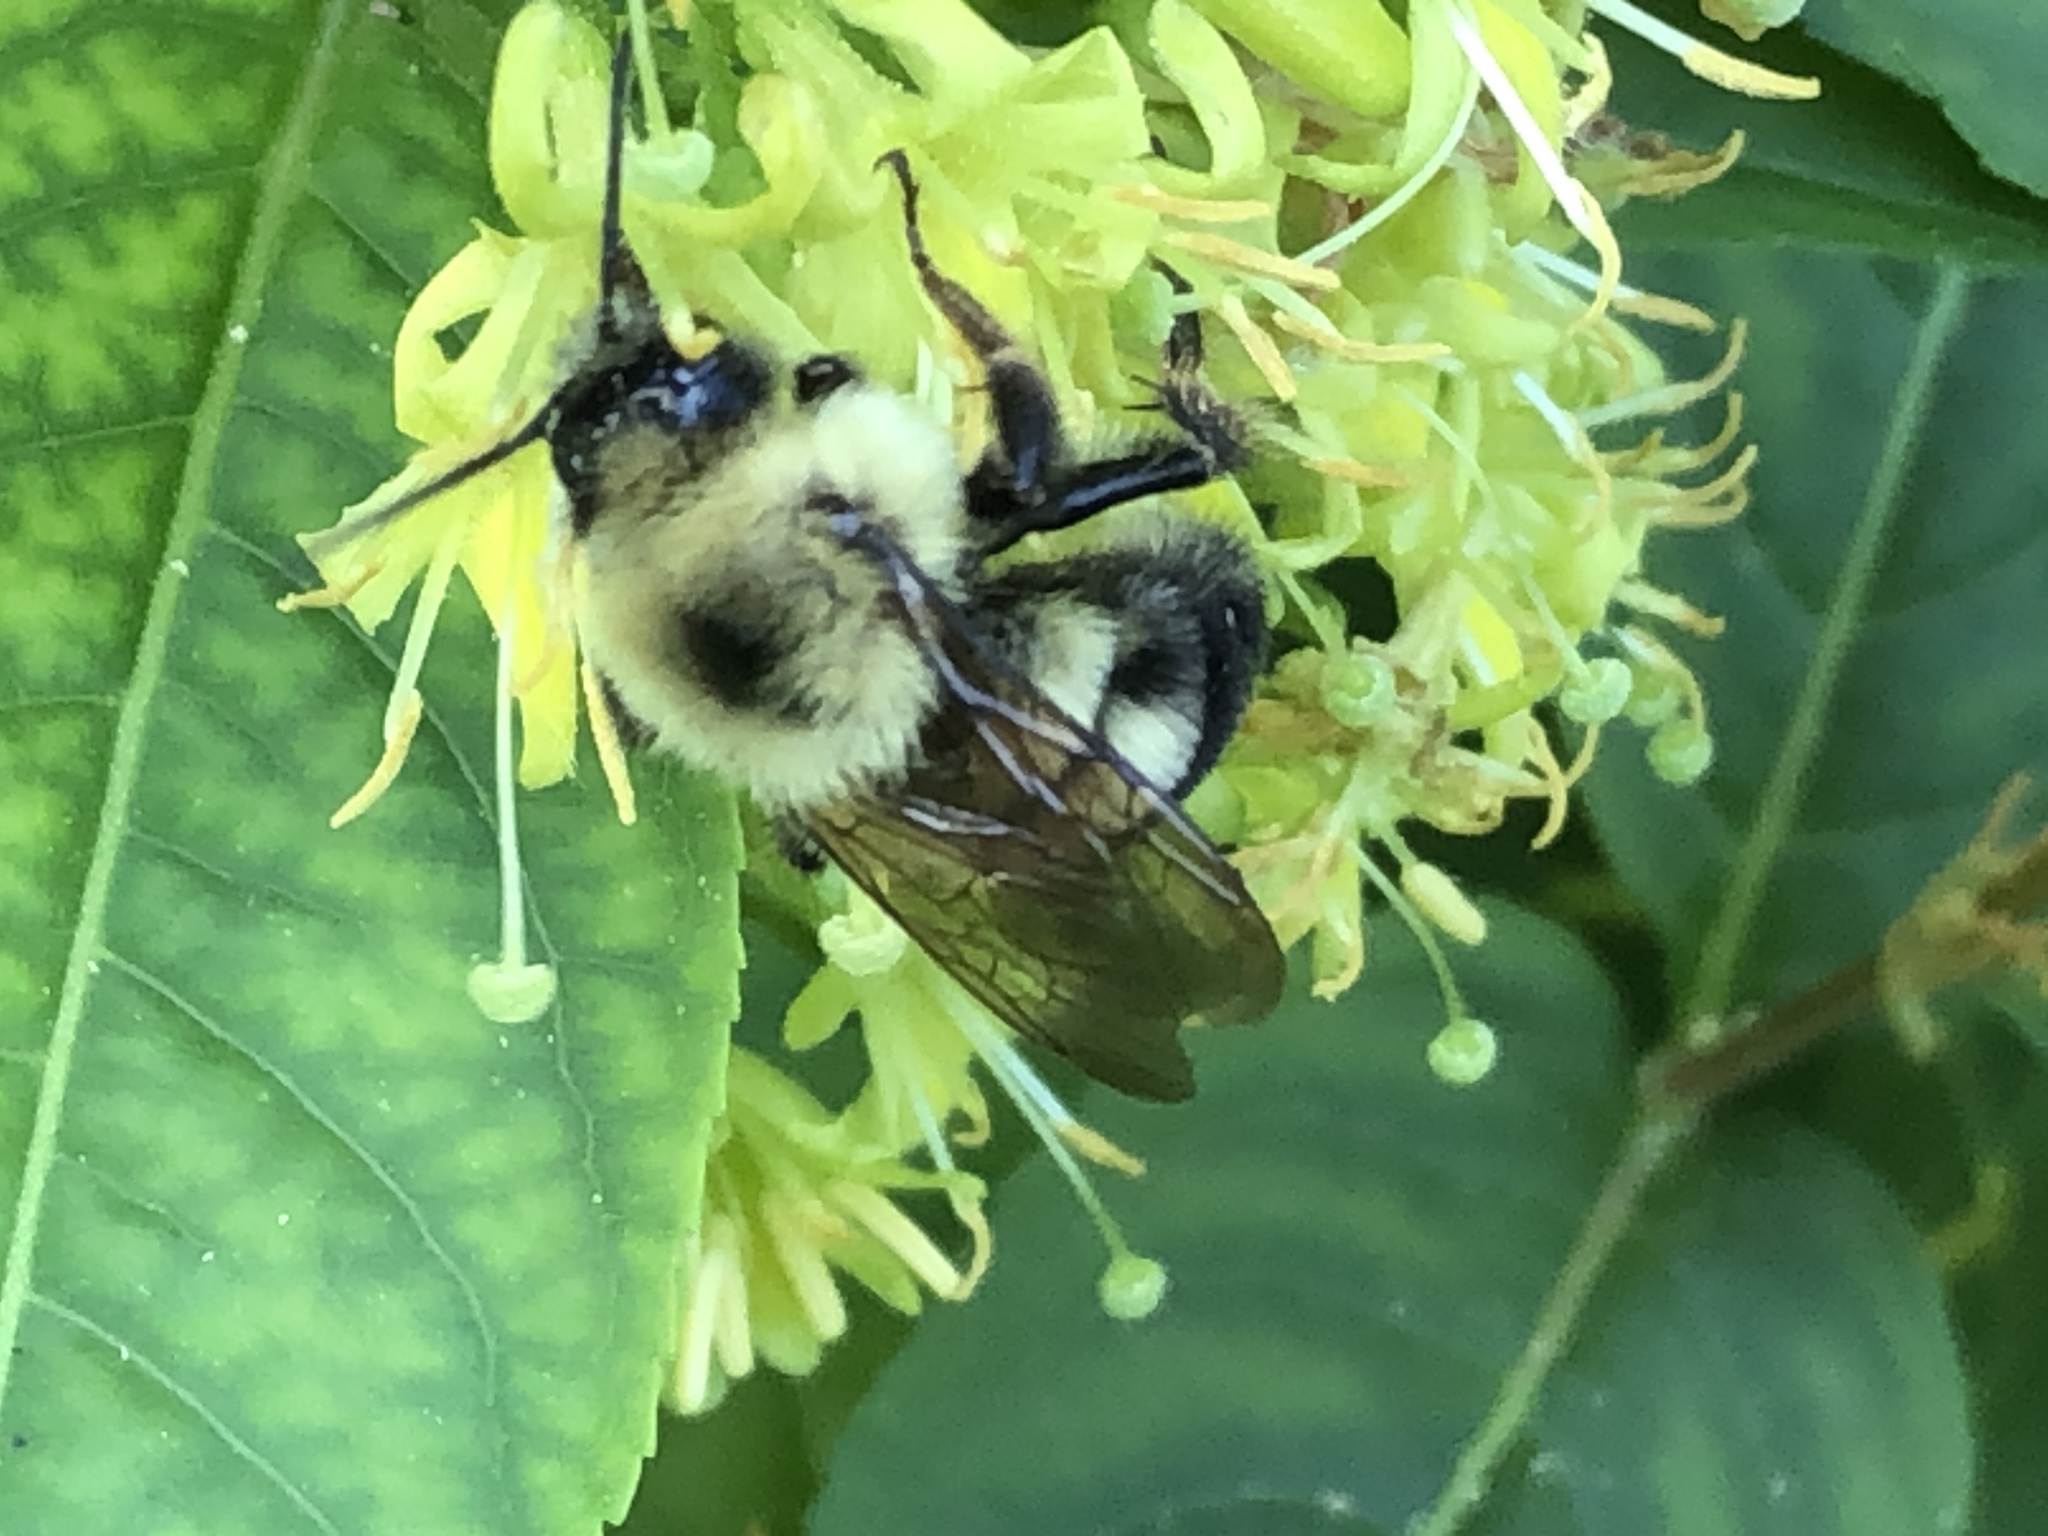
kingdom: Animalia
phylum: Arthropoda
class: Insecta
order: Hymenoptera
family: Apidae
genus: Bombus
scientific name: Bombus bimaculatus
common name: Two-spotted bumble bee
